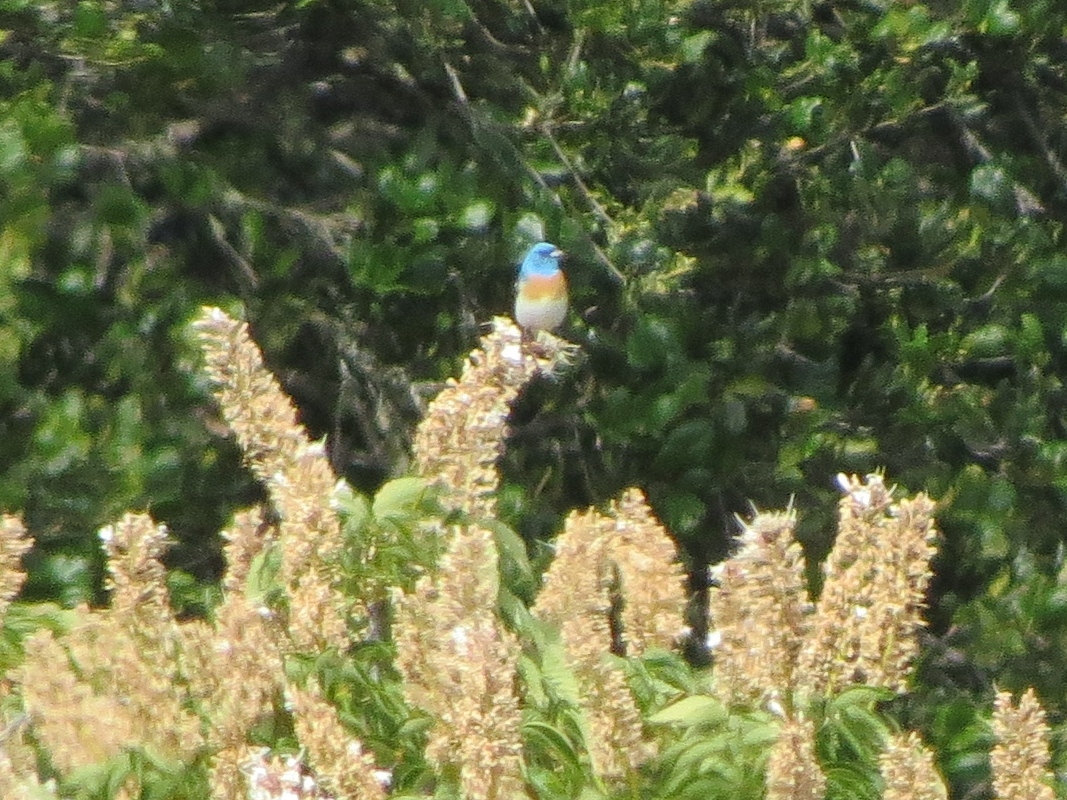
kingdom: Animalia
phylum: Chordata
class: Aves
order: Passeriformes
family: Cardinalidae
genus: Passerina
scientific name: Passerina amoena
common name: Lazuli bunting
